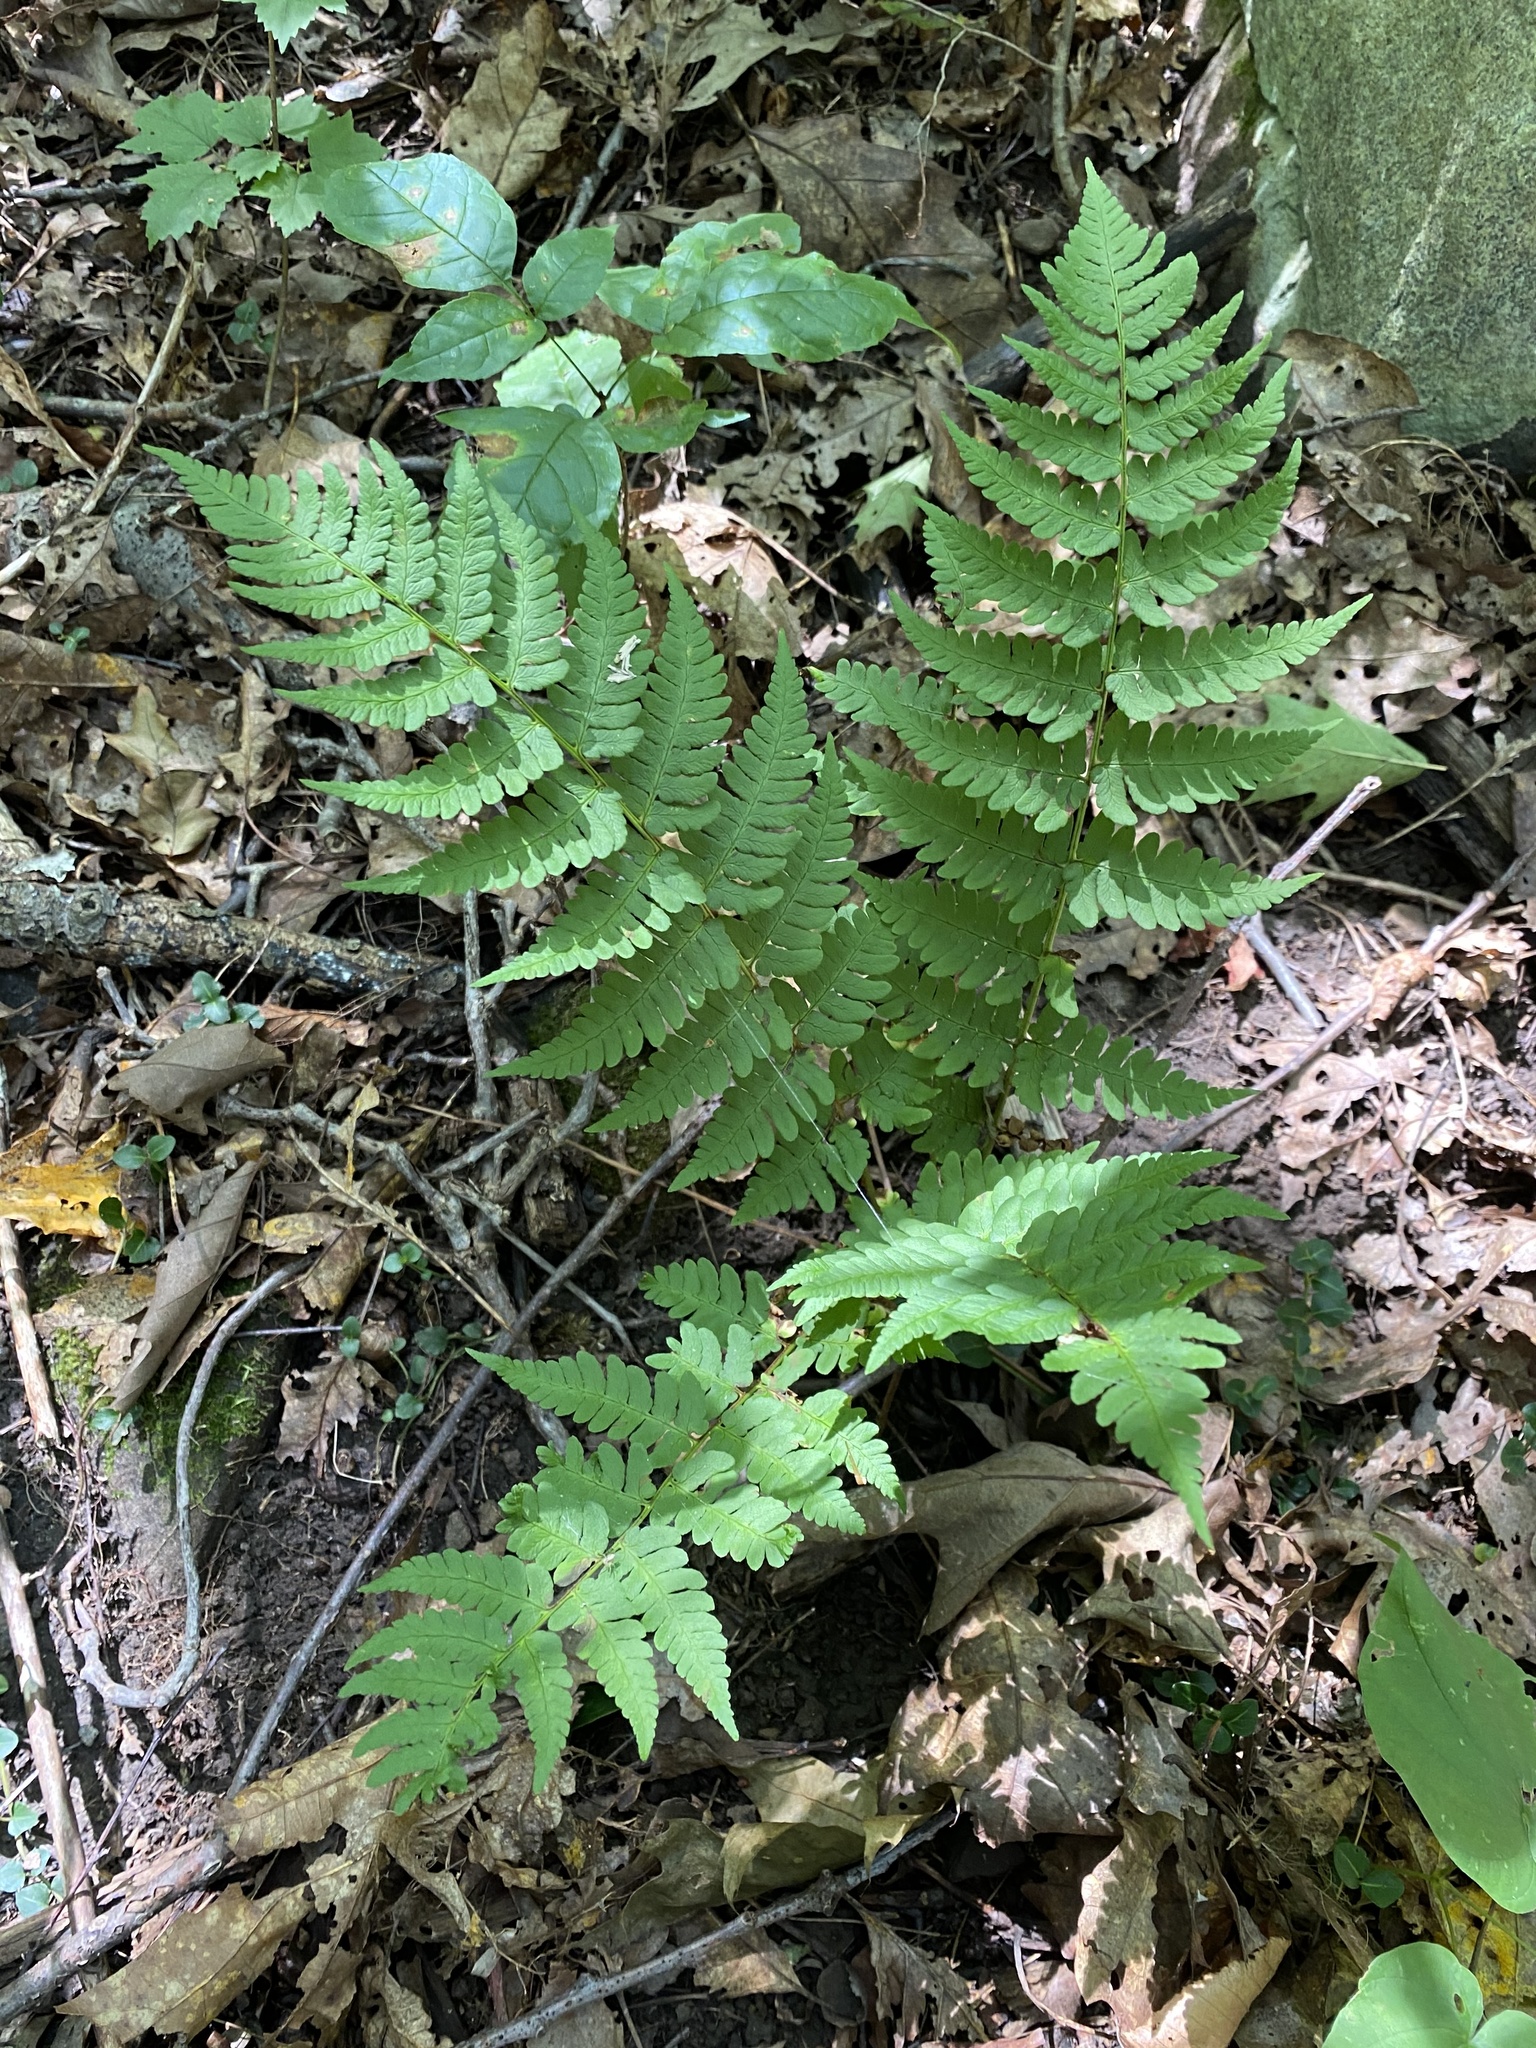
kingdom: Plantae
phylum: Tracheophyta
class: Polypodiopsida
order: Polypodiales
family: Dryopteridaceae
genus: Dryopteris
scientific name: Dryopteris marginalis
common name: Marginal wood fern
